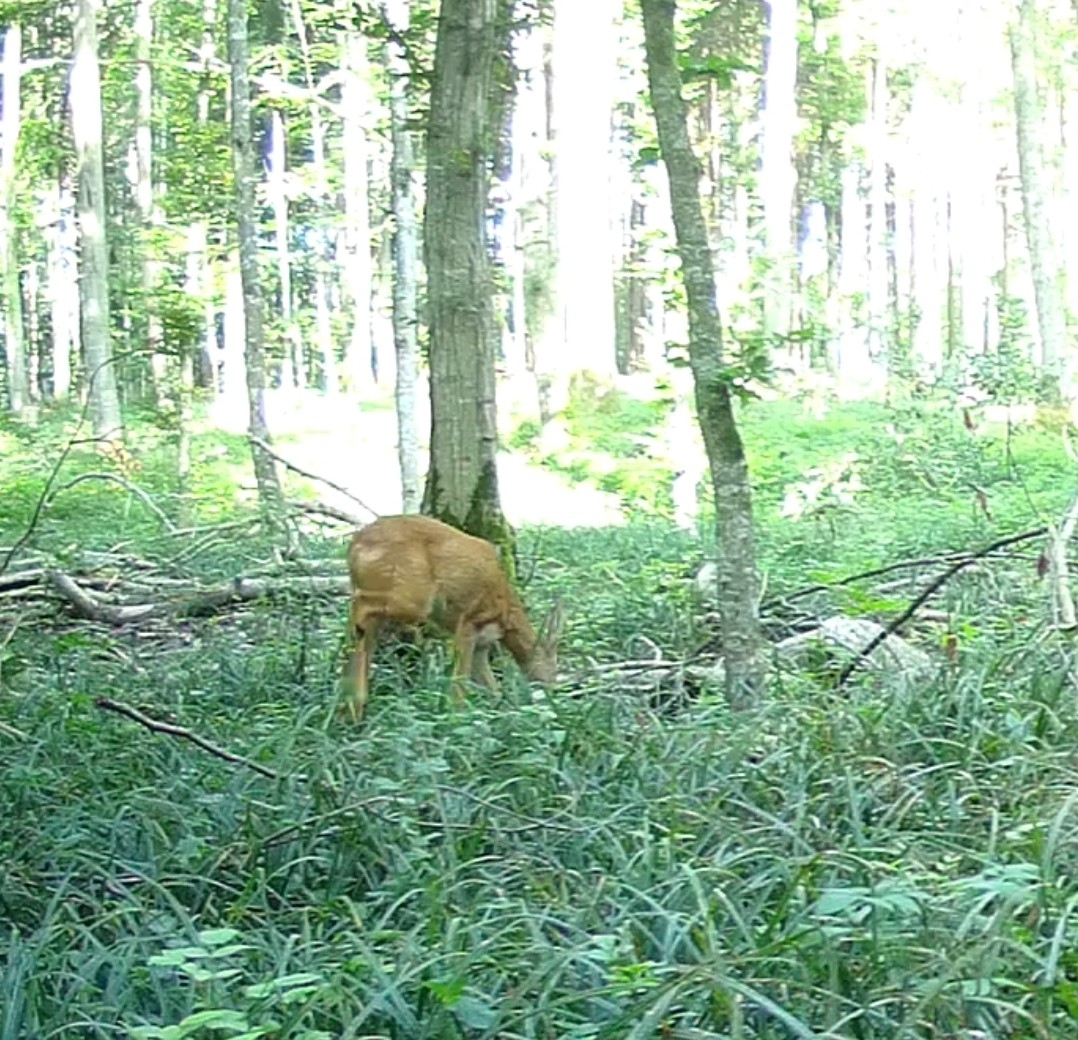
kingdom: Animalia
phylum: Chordata
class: Mammalia
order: Artiodactyla
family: Cervidae
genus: Capreolus
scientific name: Capreolus capreolus
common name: Western roe deer
